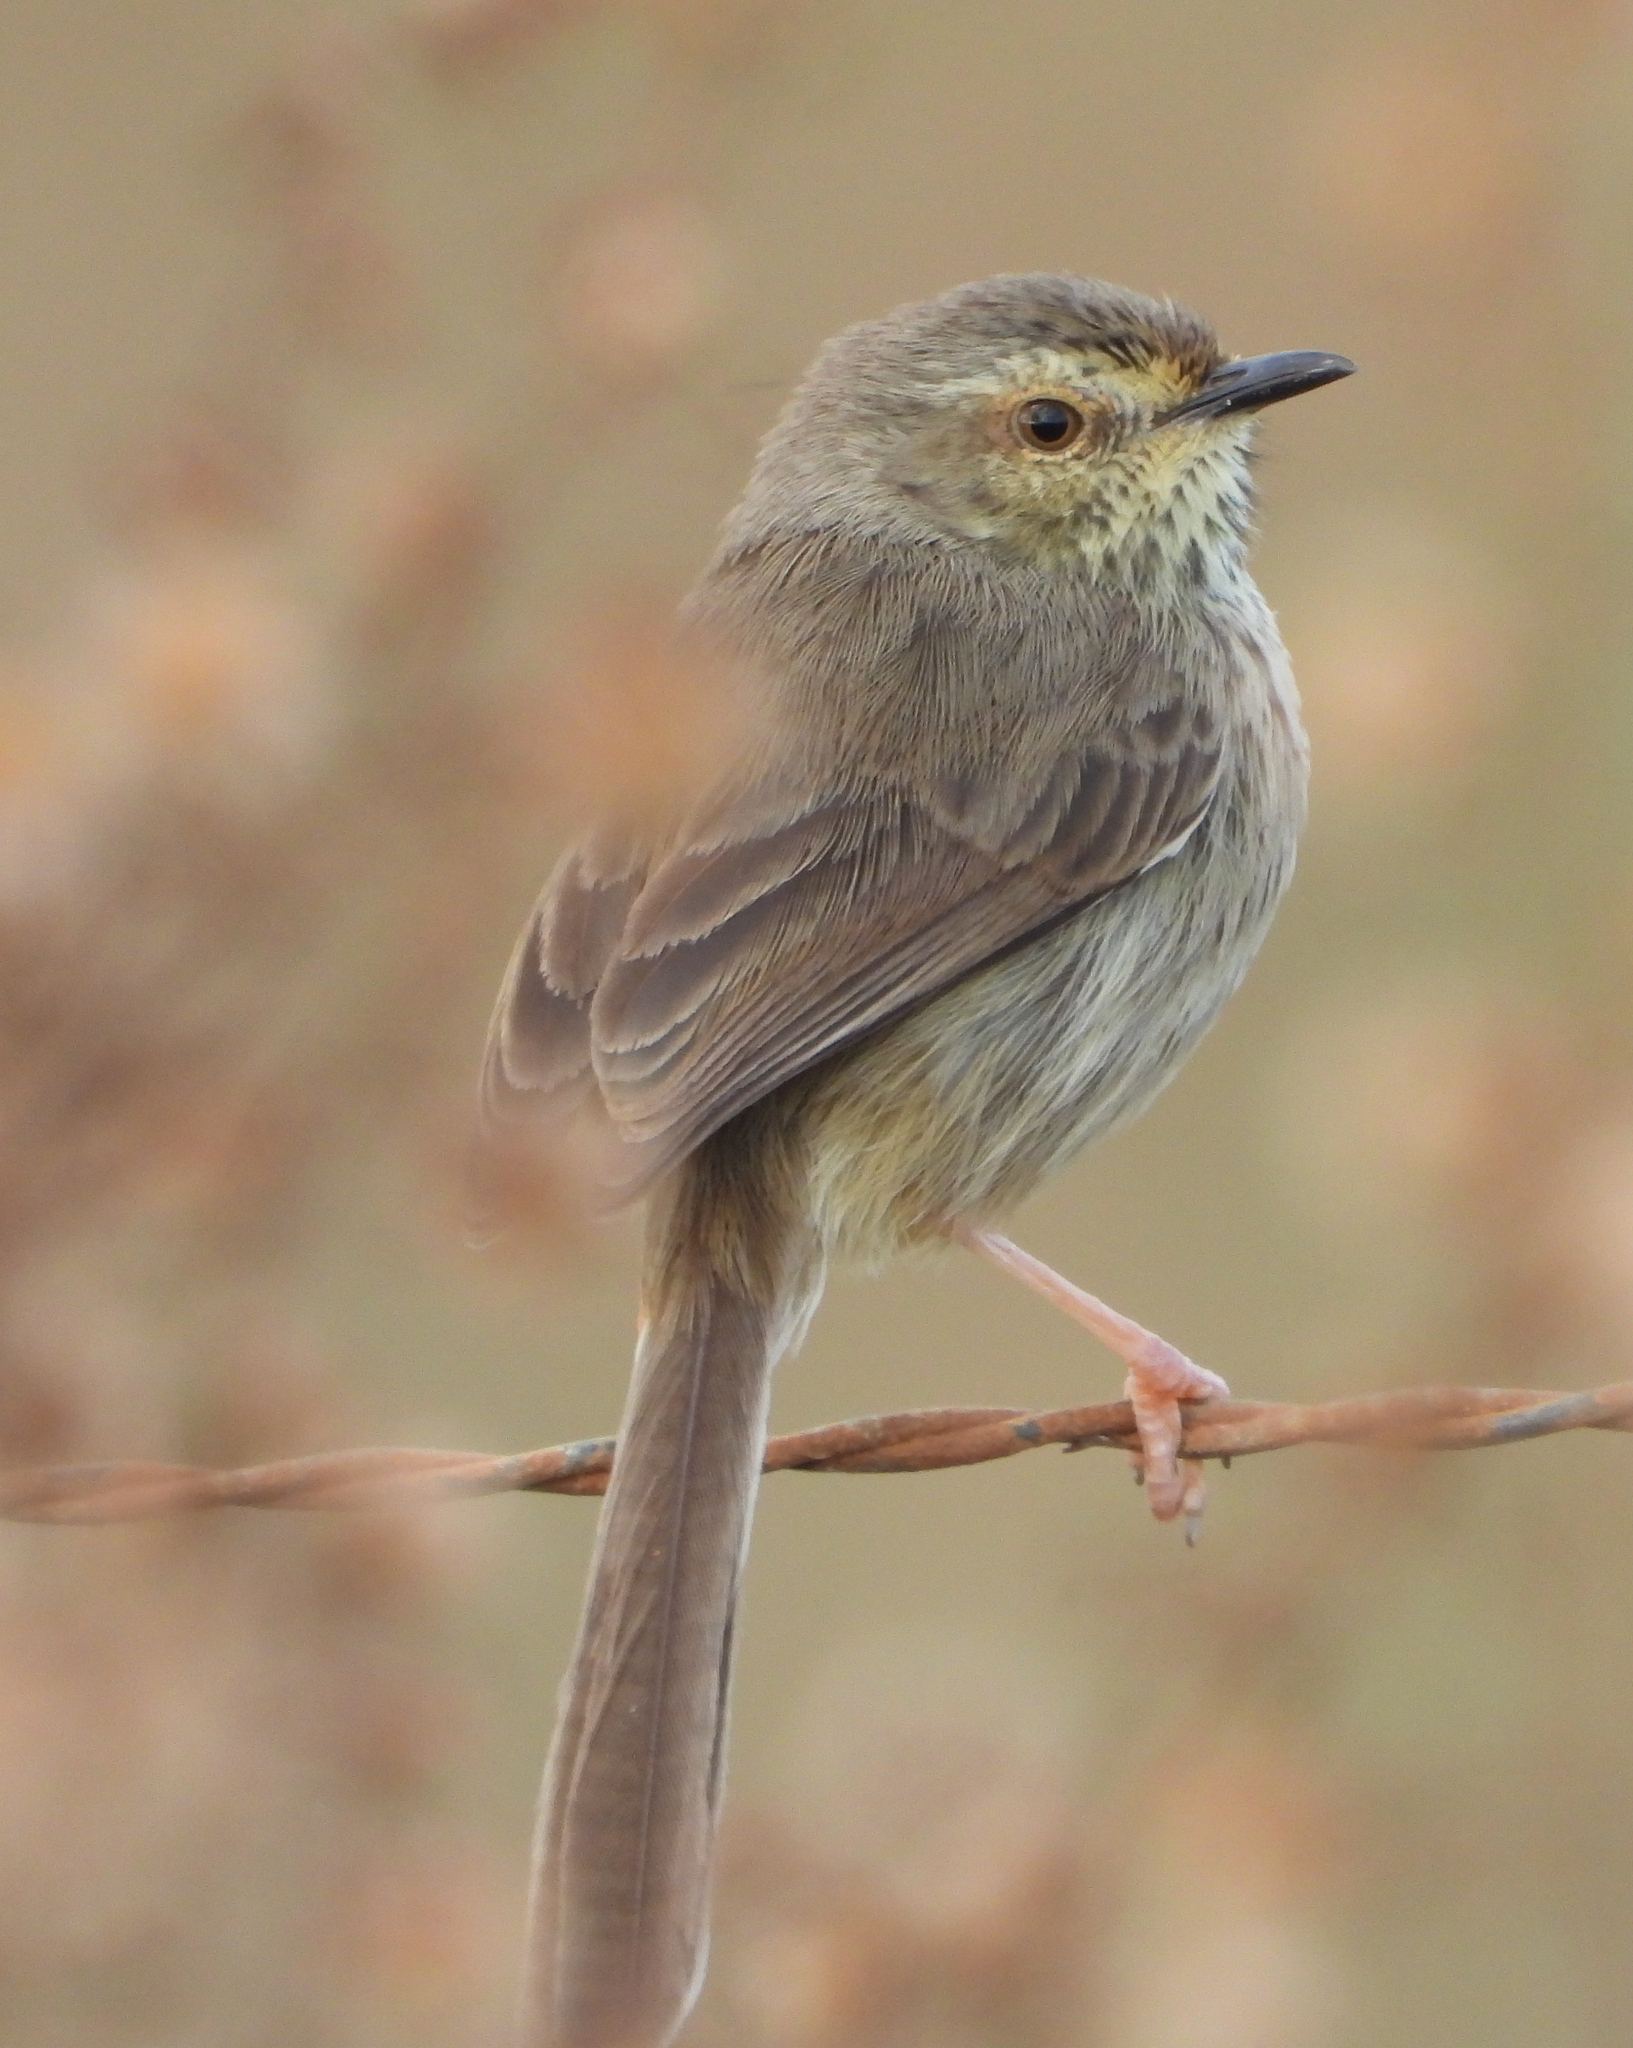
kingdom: Animalia
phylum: Chordata
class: Aves
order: Passeriformes
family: Cisticolidae
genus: Prinia
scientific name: Prinia maculosa
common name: Karoo prinia
